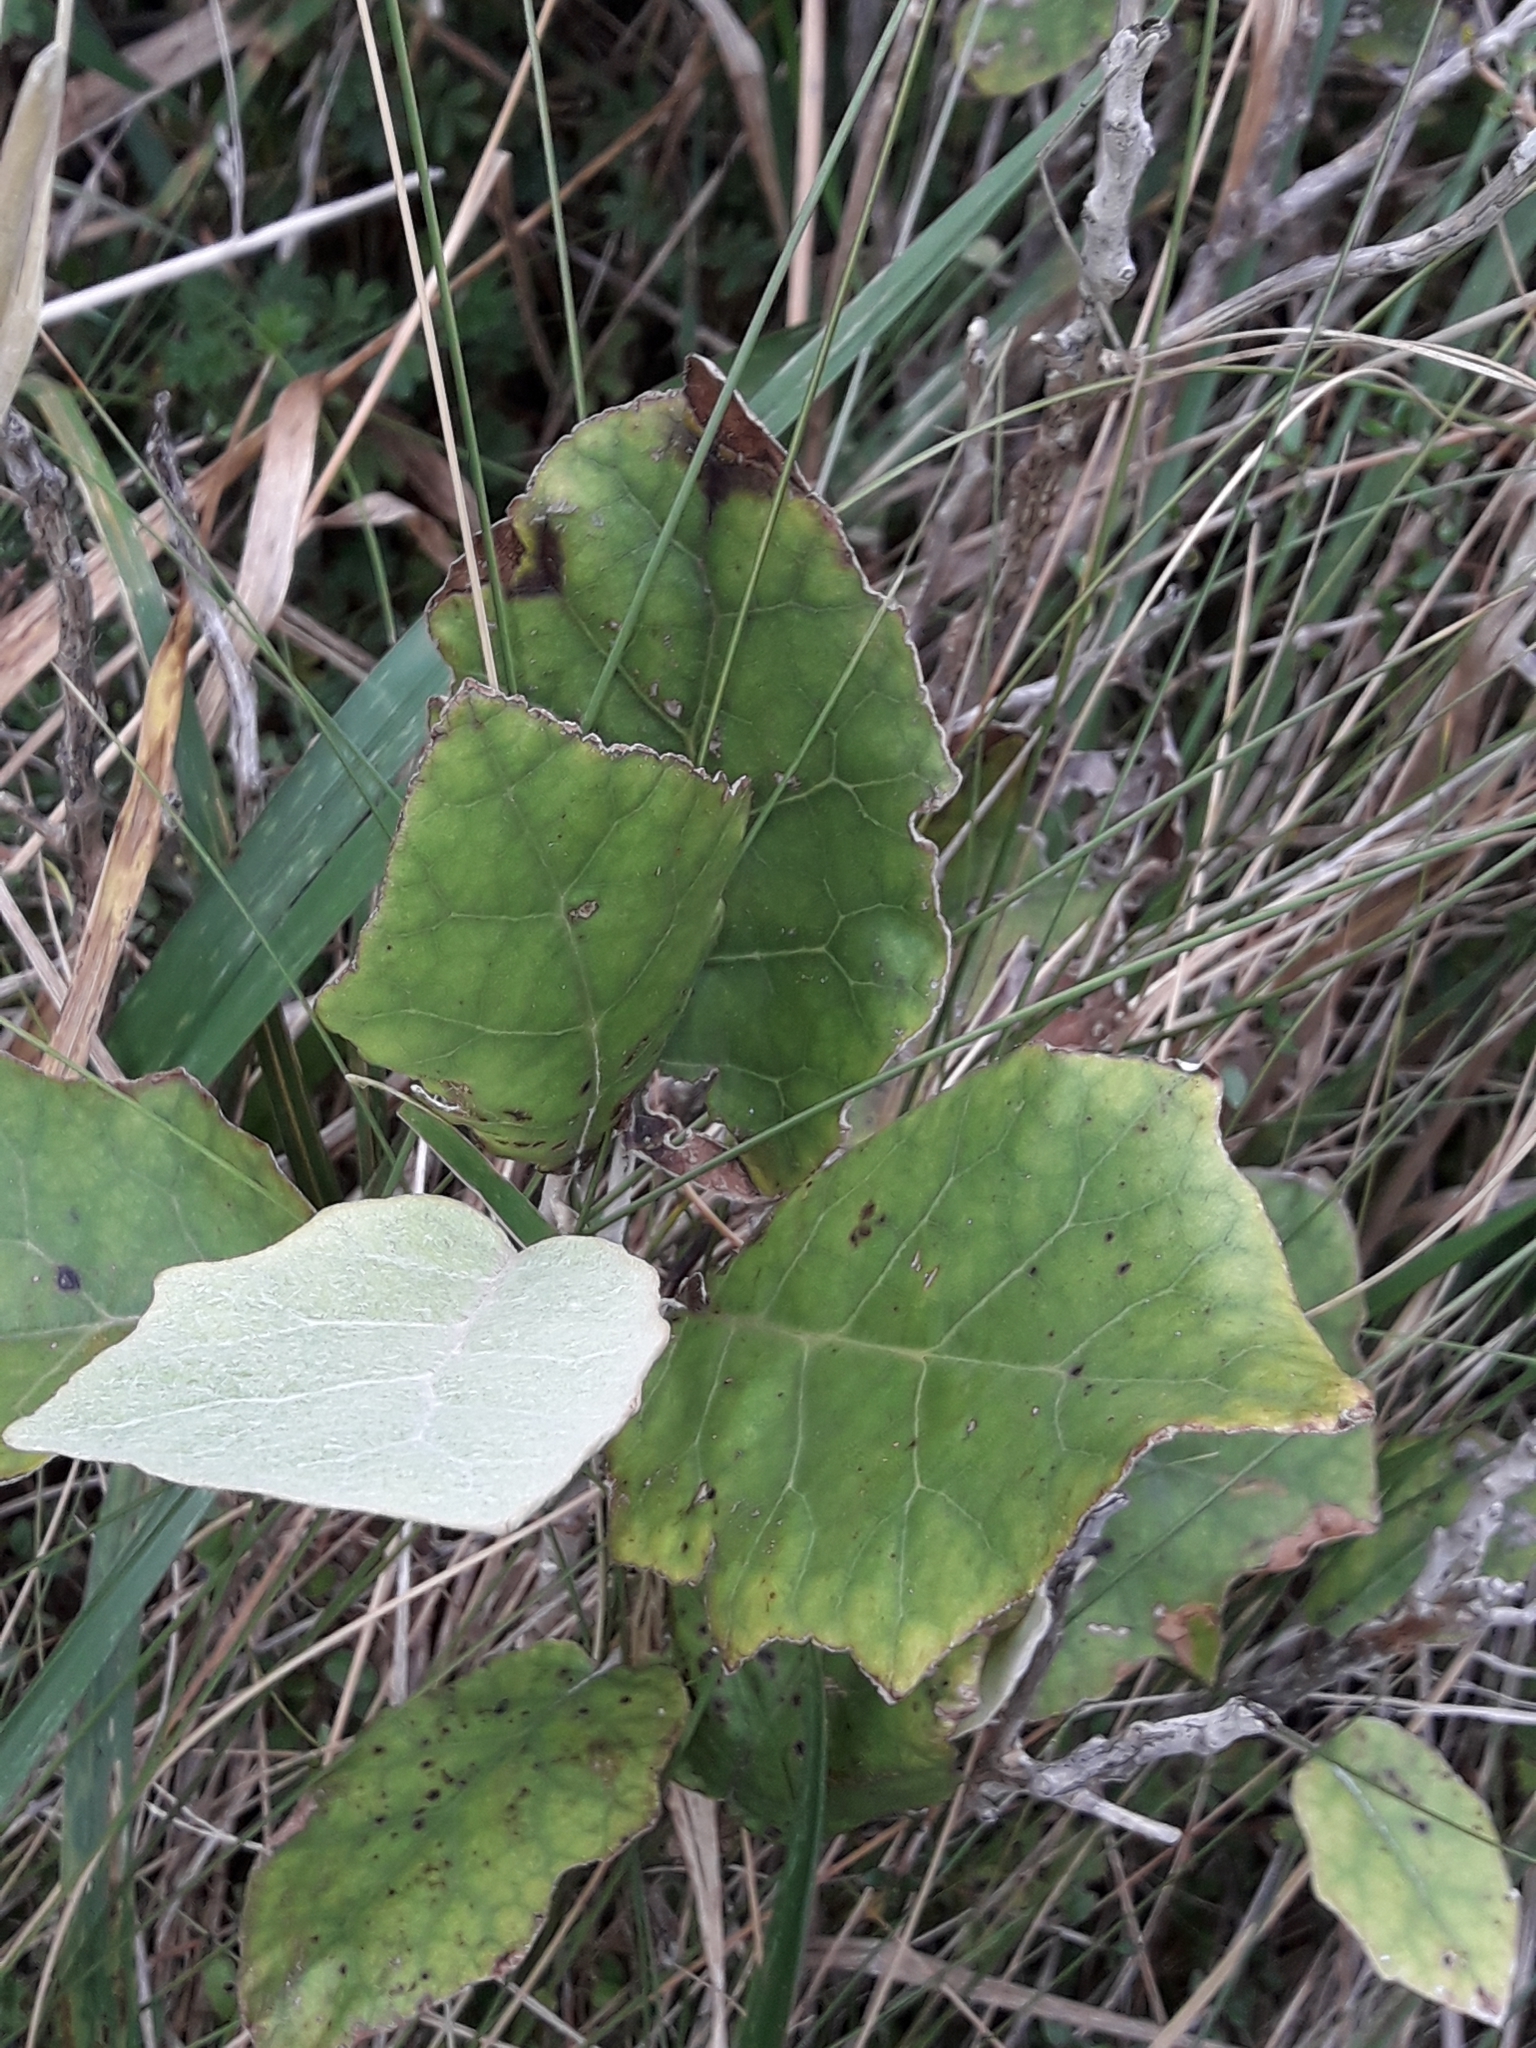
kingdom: Plantae
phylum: Tracheophyta
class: Magnoliopsida
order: Asterales
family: Asteraceae
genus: Brachyglottis
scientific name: Brachyglottis repanda
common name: Hedge ragwort
